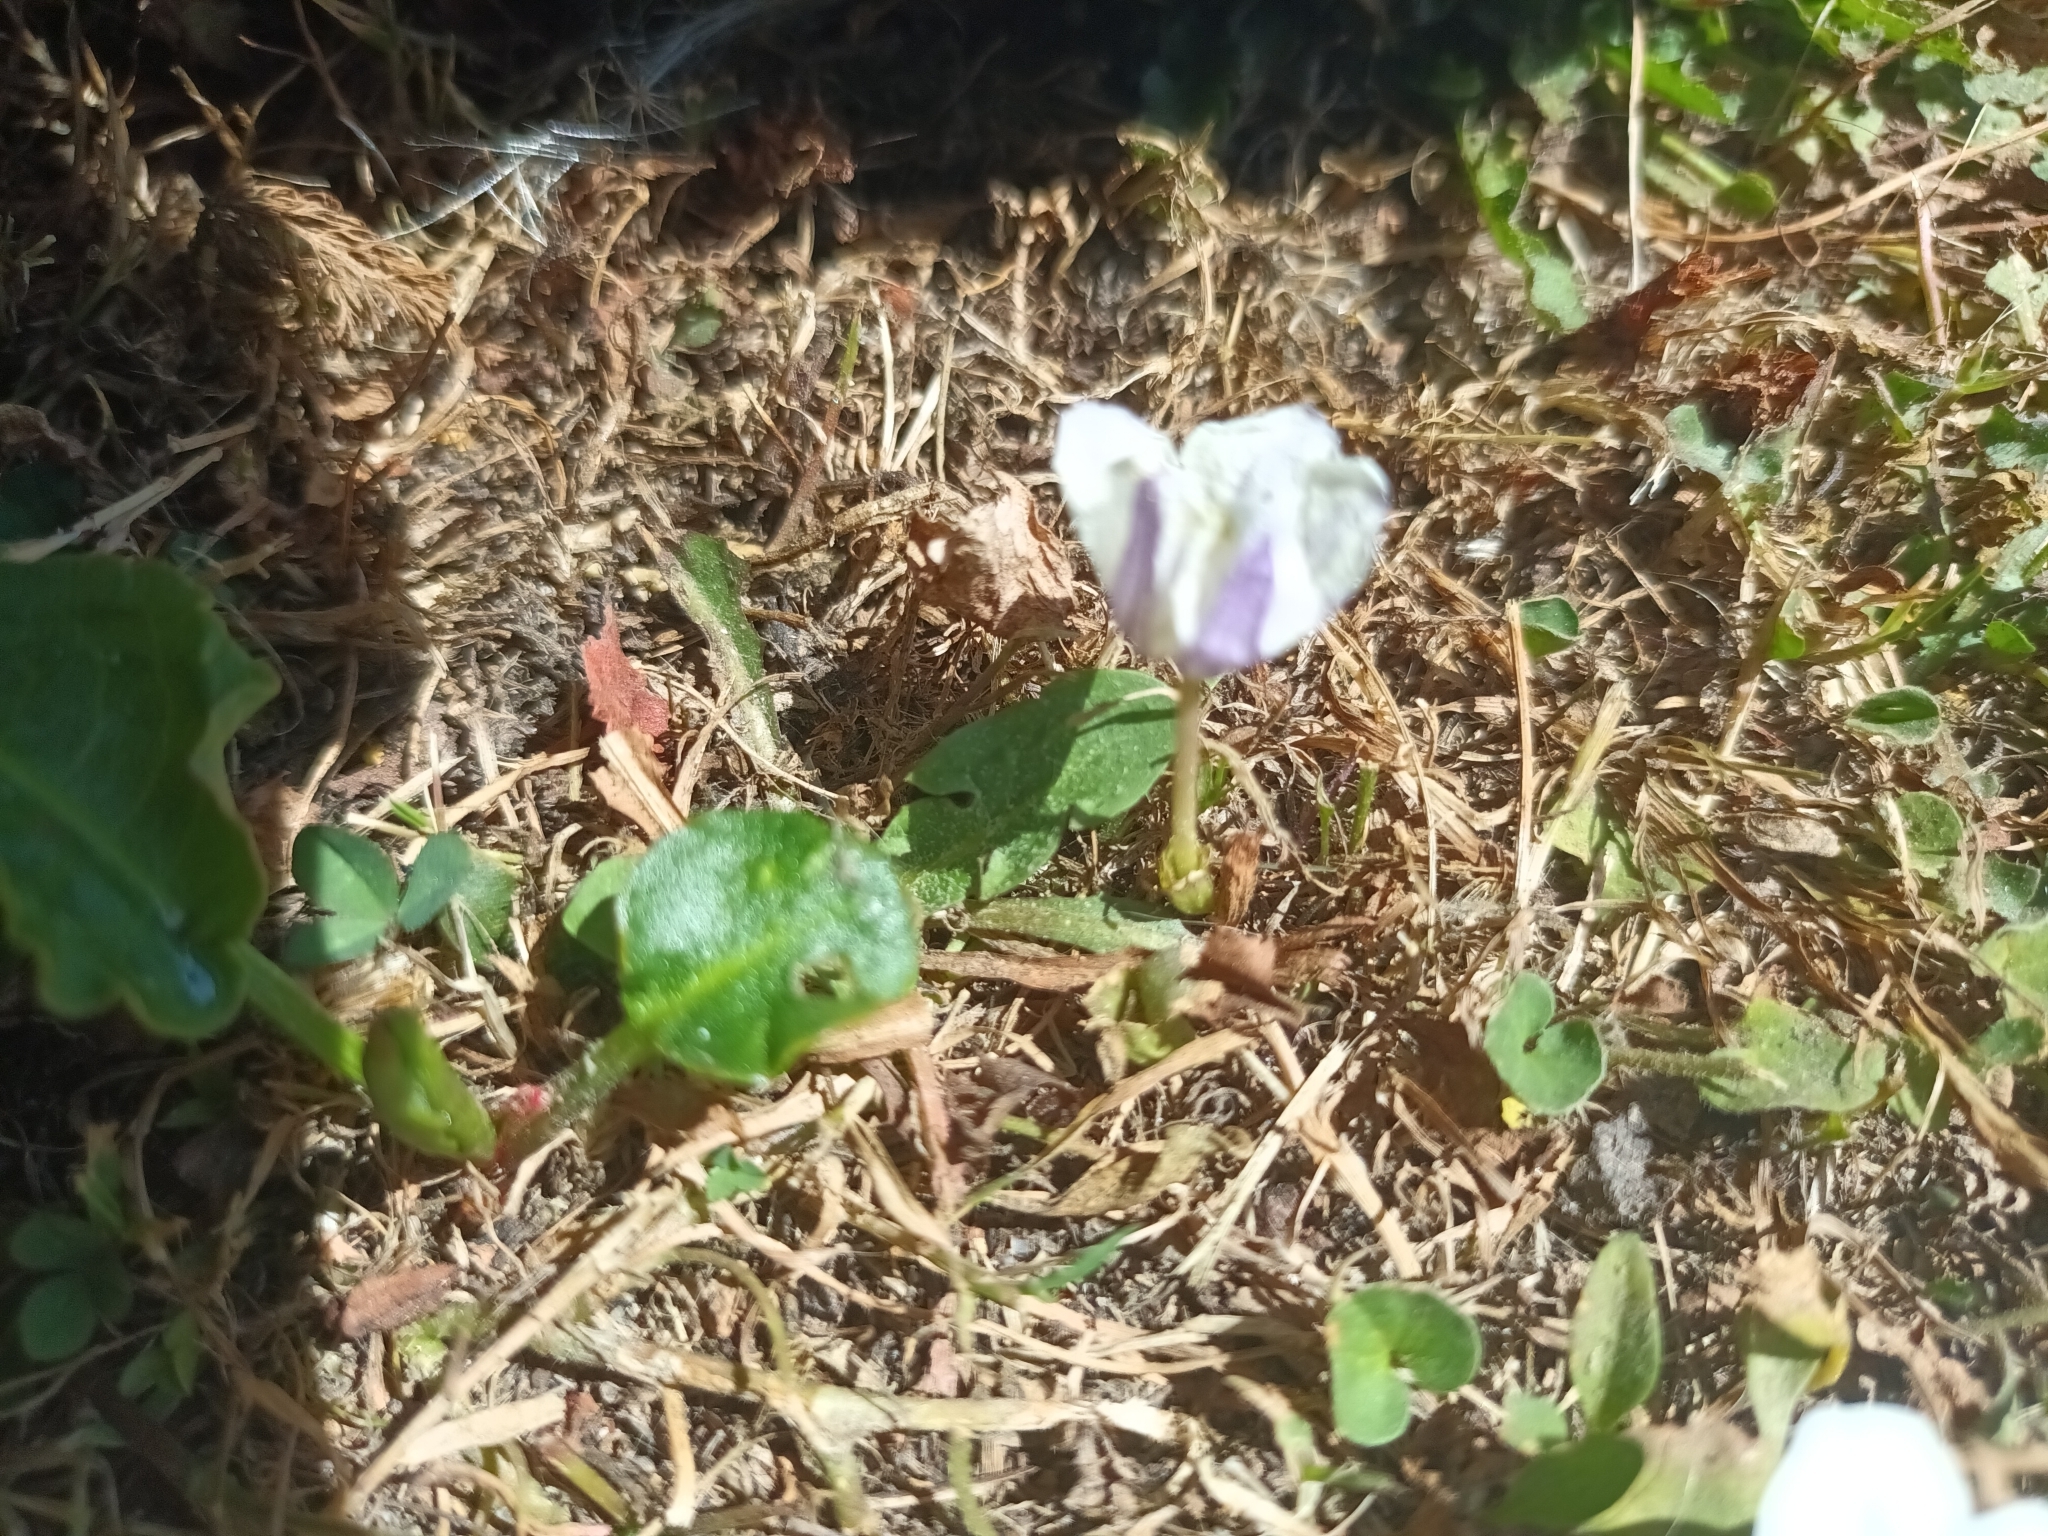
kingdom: Plantae
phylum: Tracheophyta
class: Magnoliopsida
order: Solanales
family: Solanaceae
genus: Nierembergia
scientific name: Nierembergia repens
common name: Whitecup
